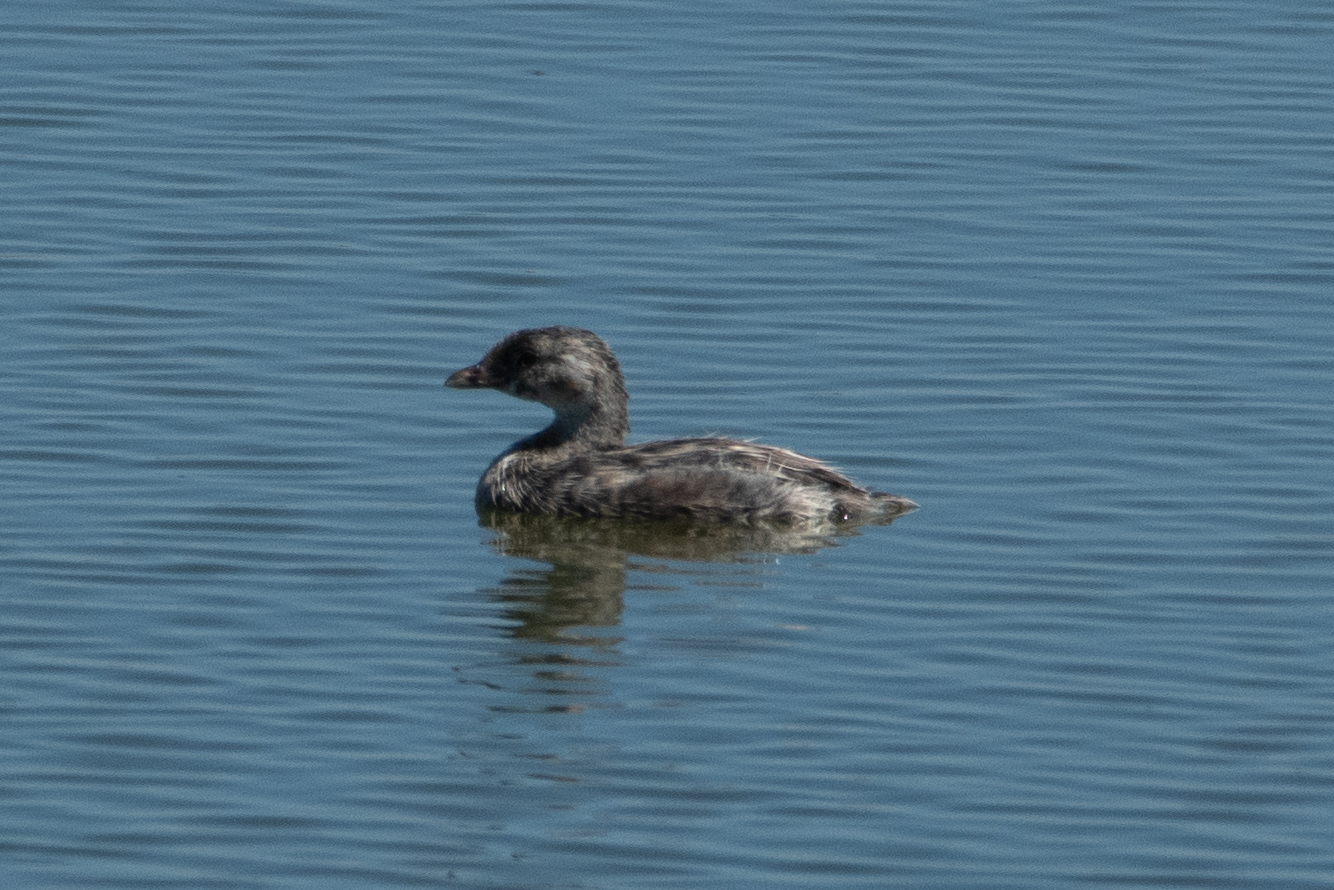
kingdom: Animalia
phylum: Chordata
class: Aves
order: Podicipediformes
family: Podicipedidae
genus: Podilymbus
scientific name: Podilymbus podiceps
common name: Pied-billed grebe
